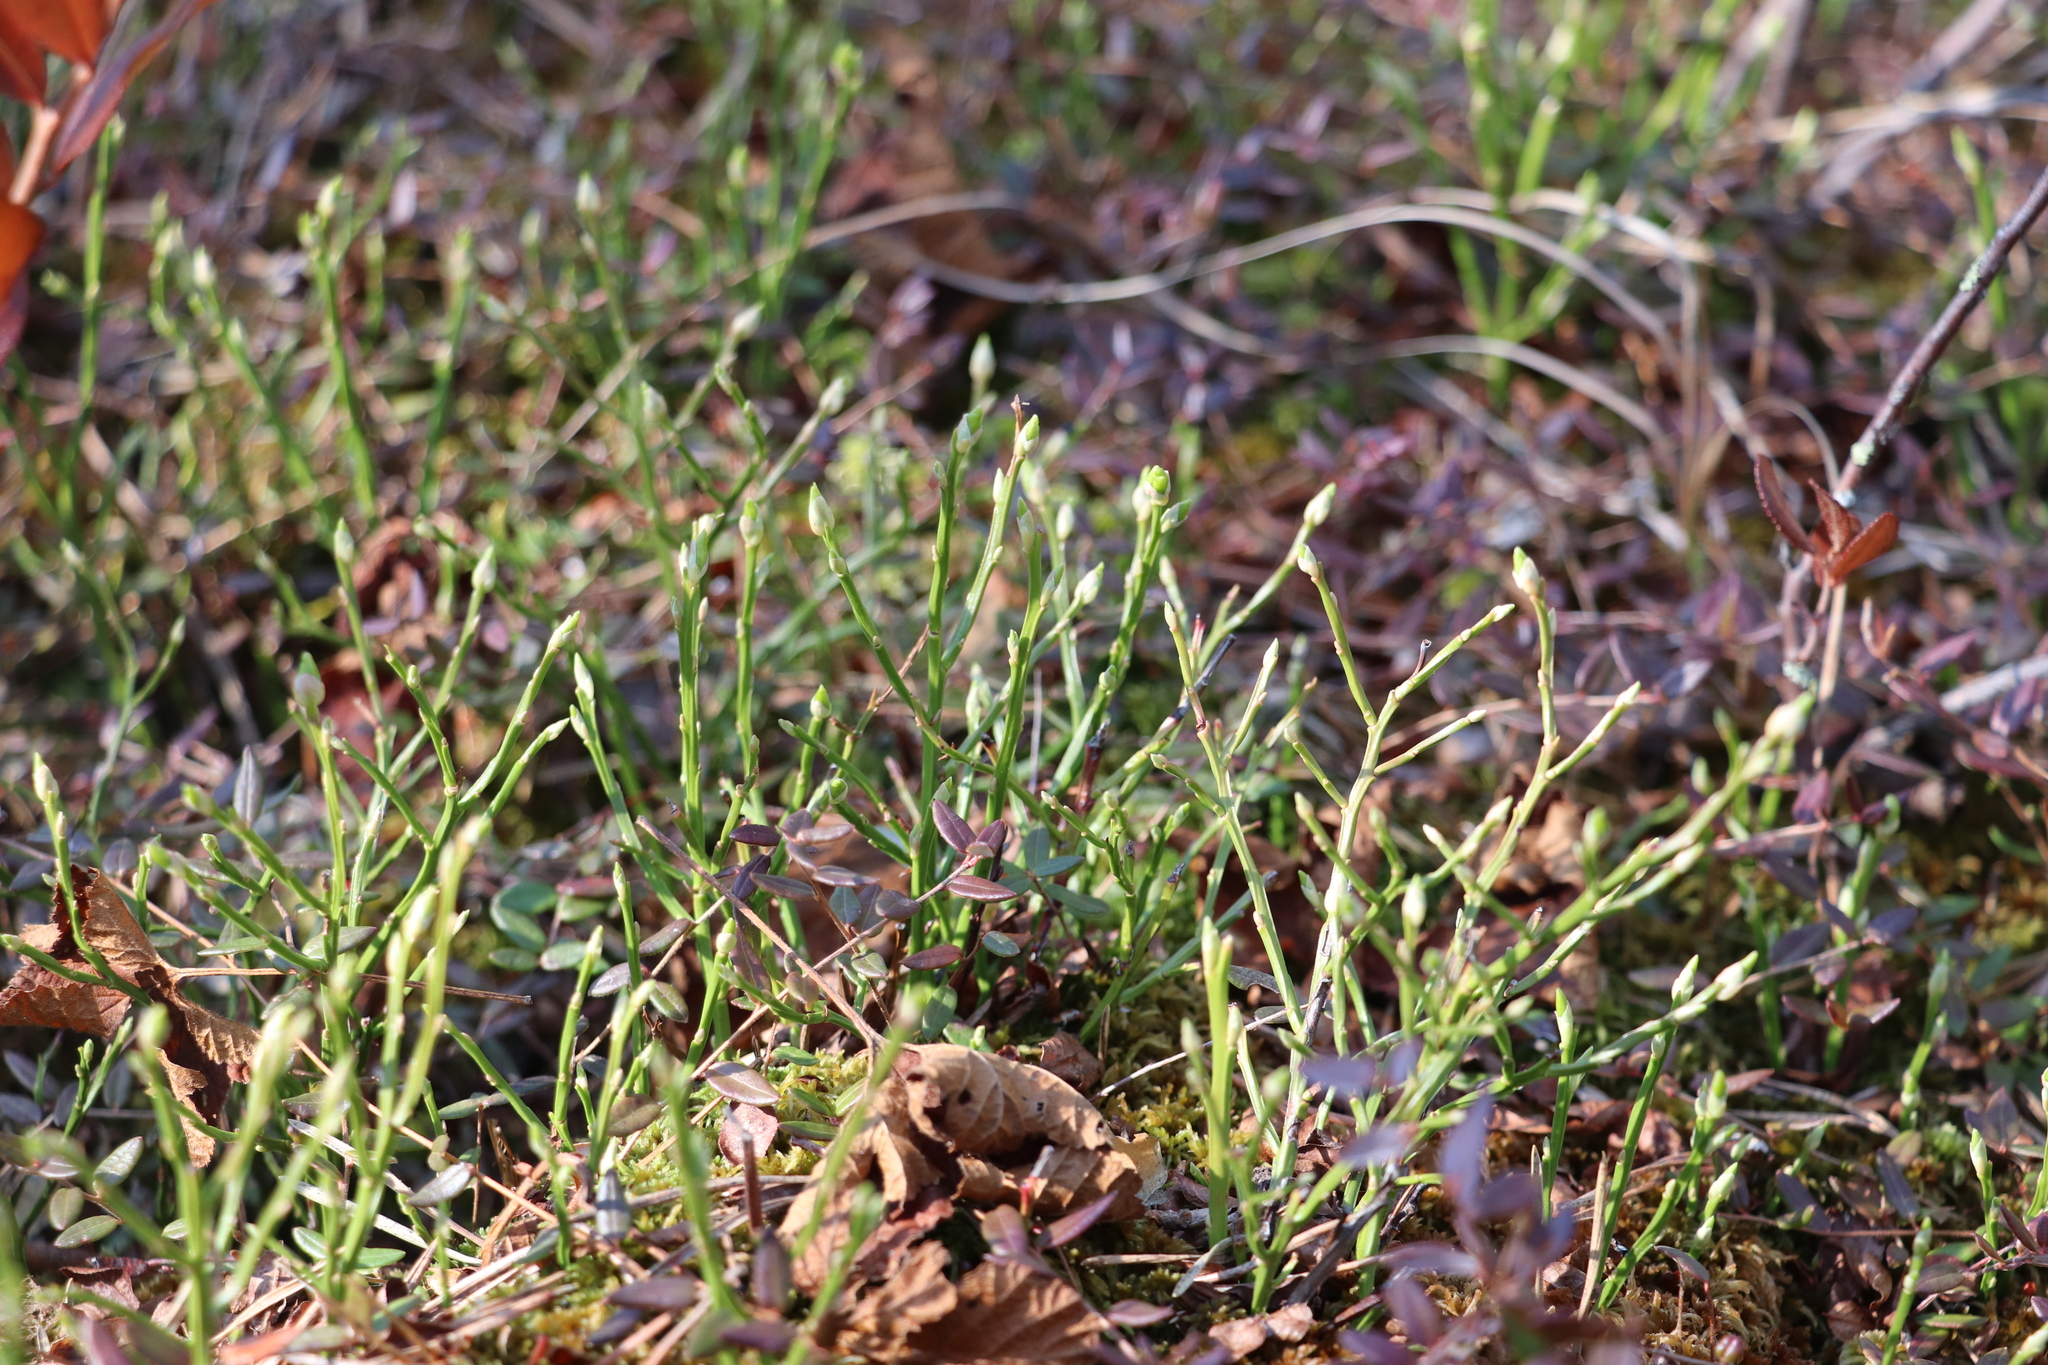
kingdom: Plantae
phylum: Tracheophyta
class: Magnoliopsida
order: Ericales
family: Ericaceae
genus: Vaccinium
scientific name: Vaccinium myrtillus
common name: Bilberry
